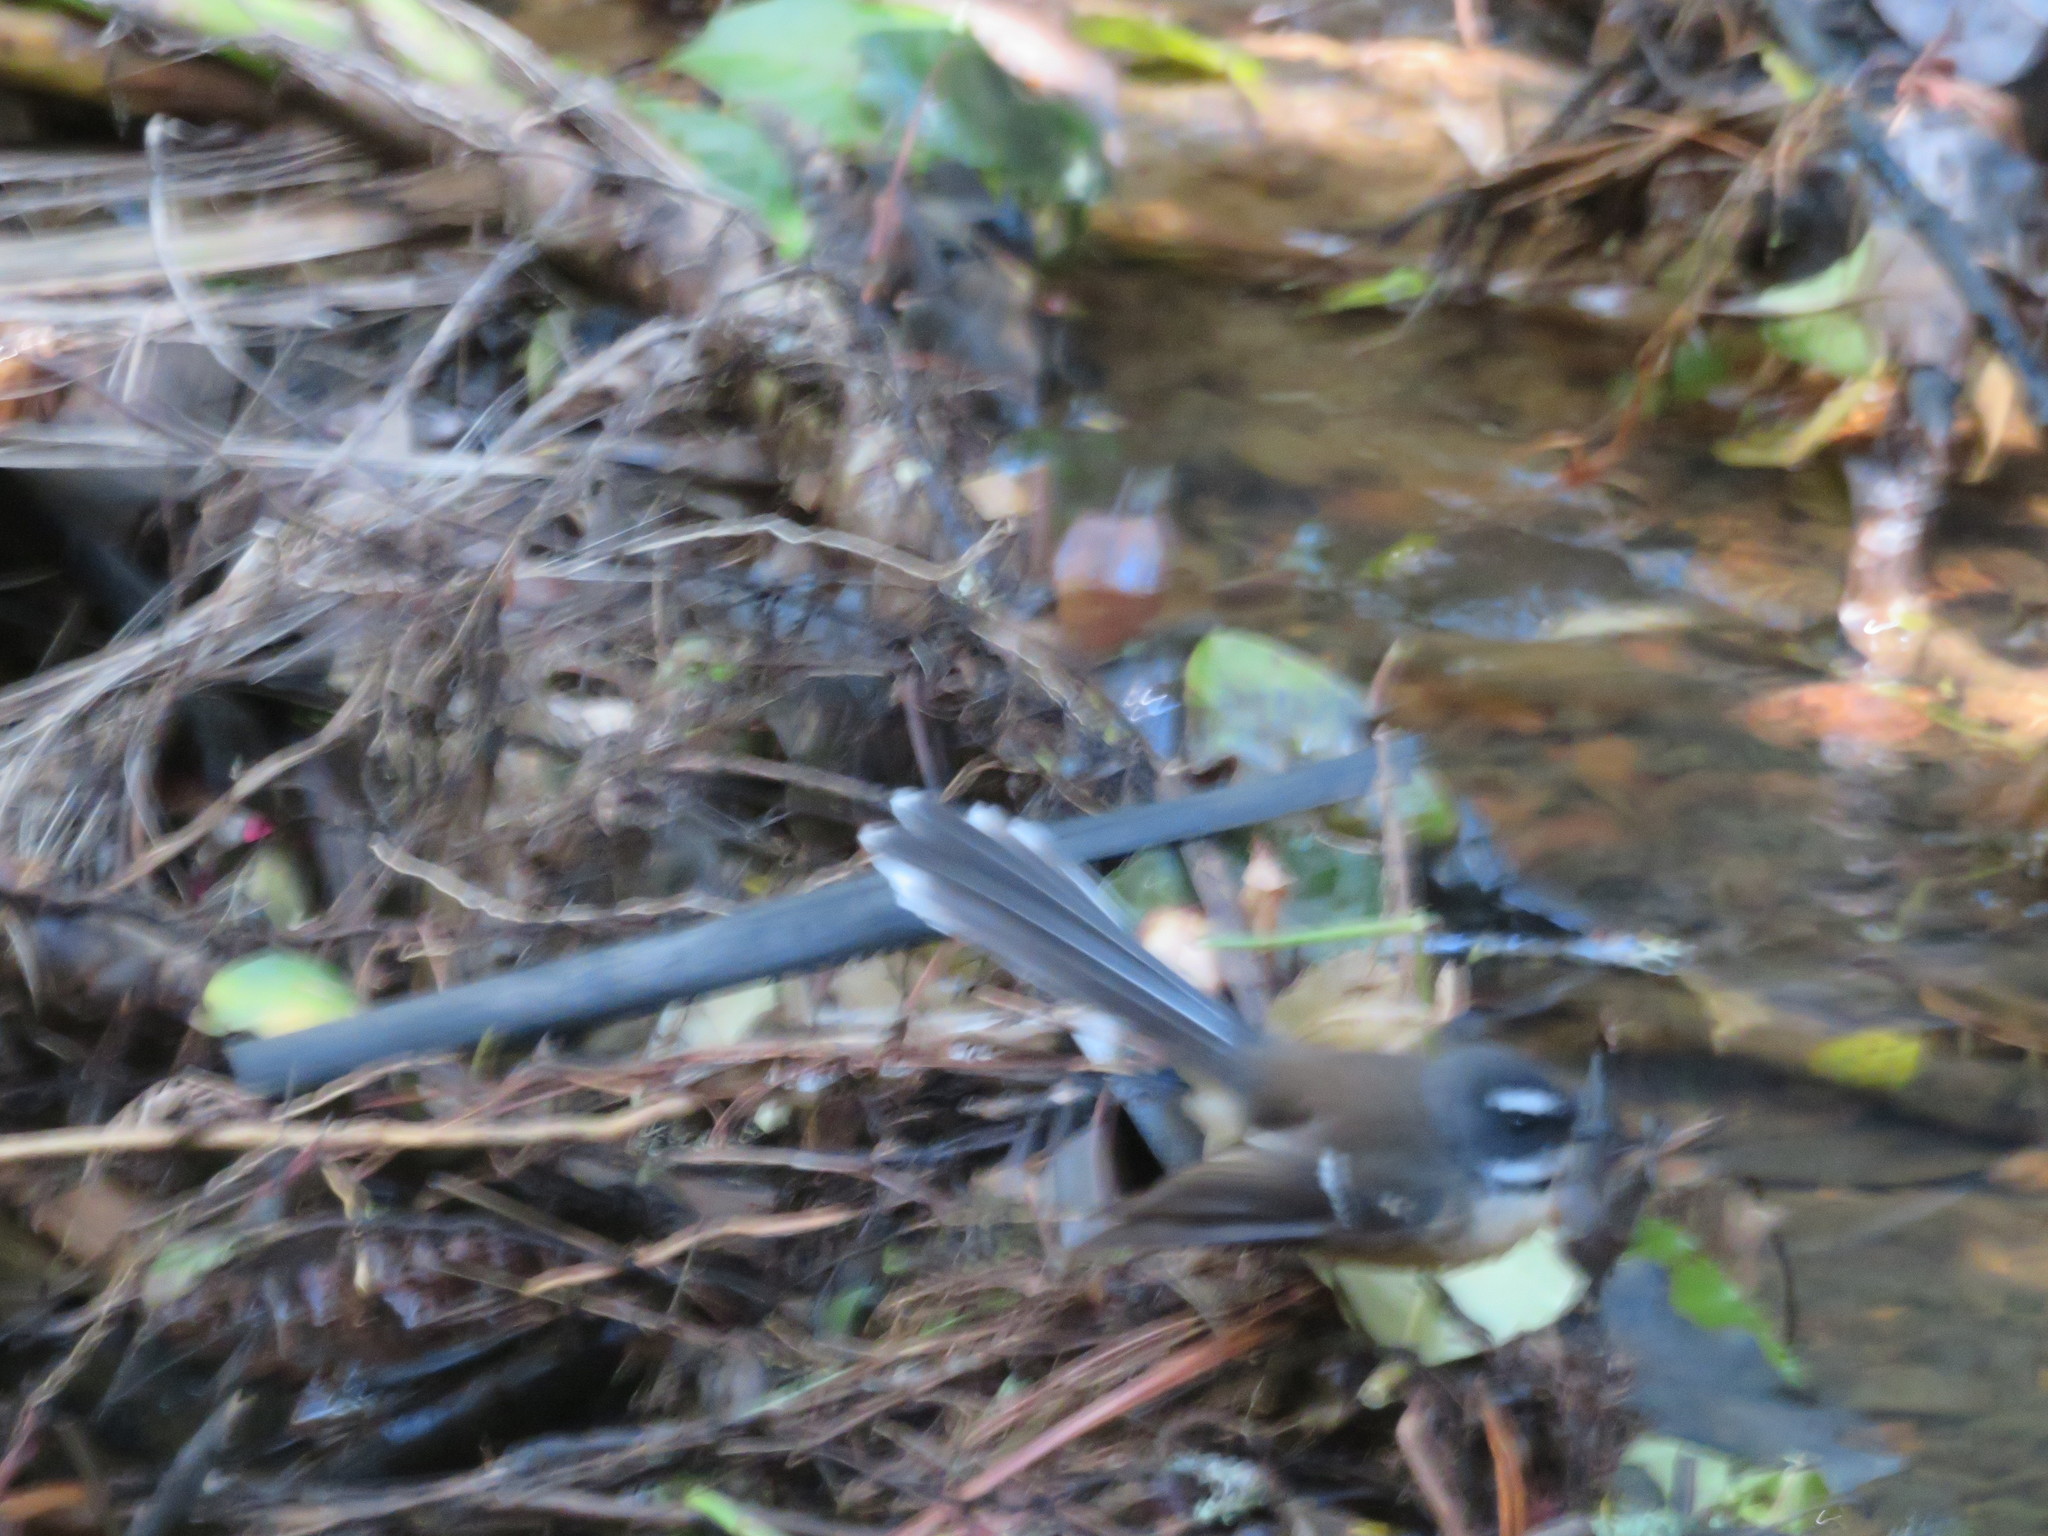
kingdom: Animalia
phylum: Chordata
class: Aves
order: Passeriformes
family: Rhipiduridae
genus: Rhipidura
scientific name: Rhipidura fuliginosa
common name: New zealand fantail
